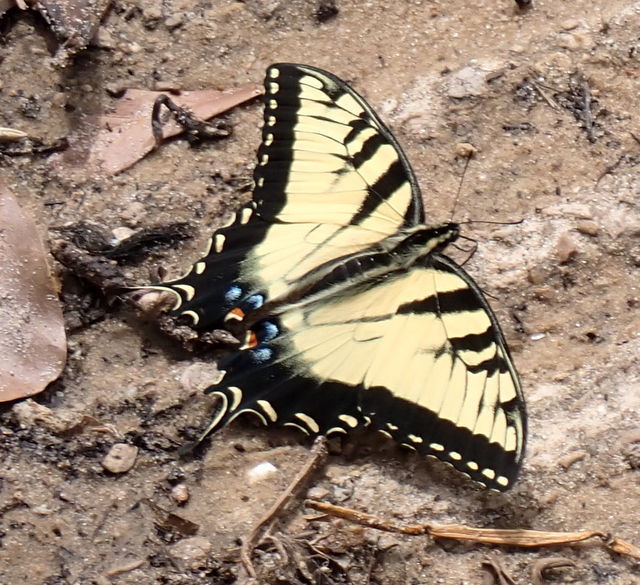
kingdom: Animalia
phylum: Arthropoda
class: Insecta
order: Lepidoptera
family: Papilionidae
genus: Papilio
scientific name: Papilio glaucus
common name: Tiger swallowtail
